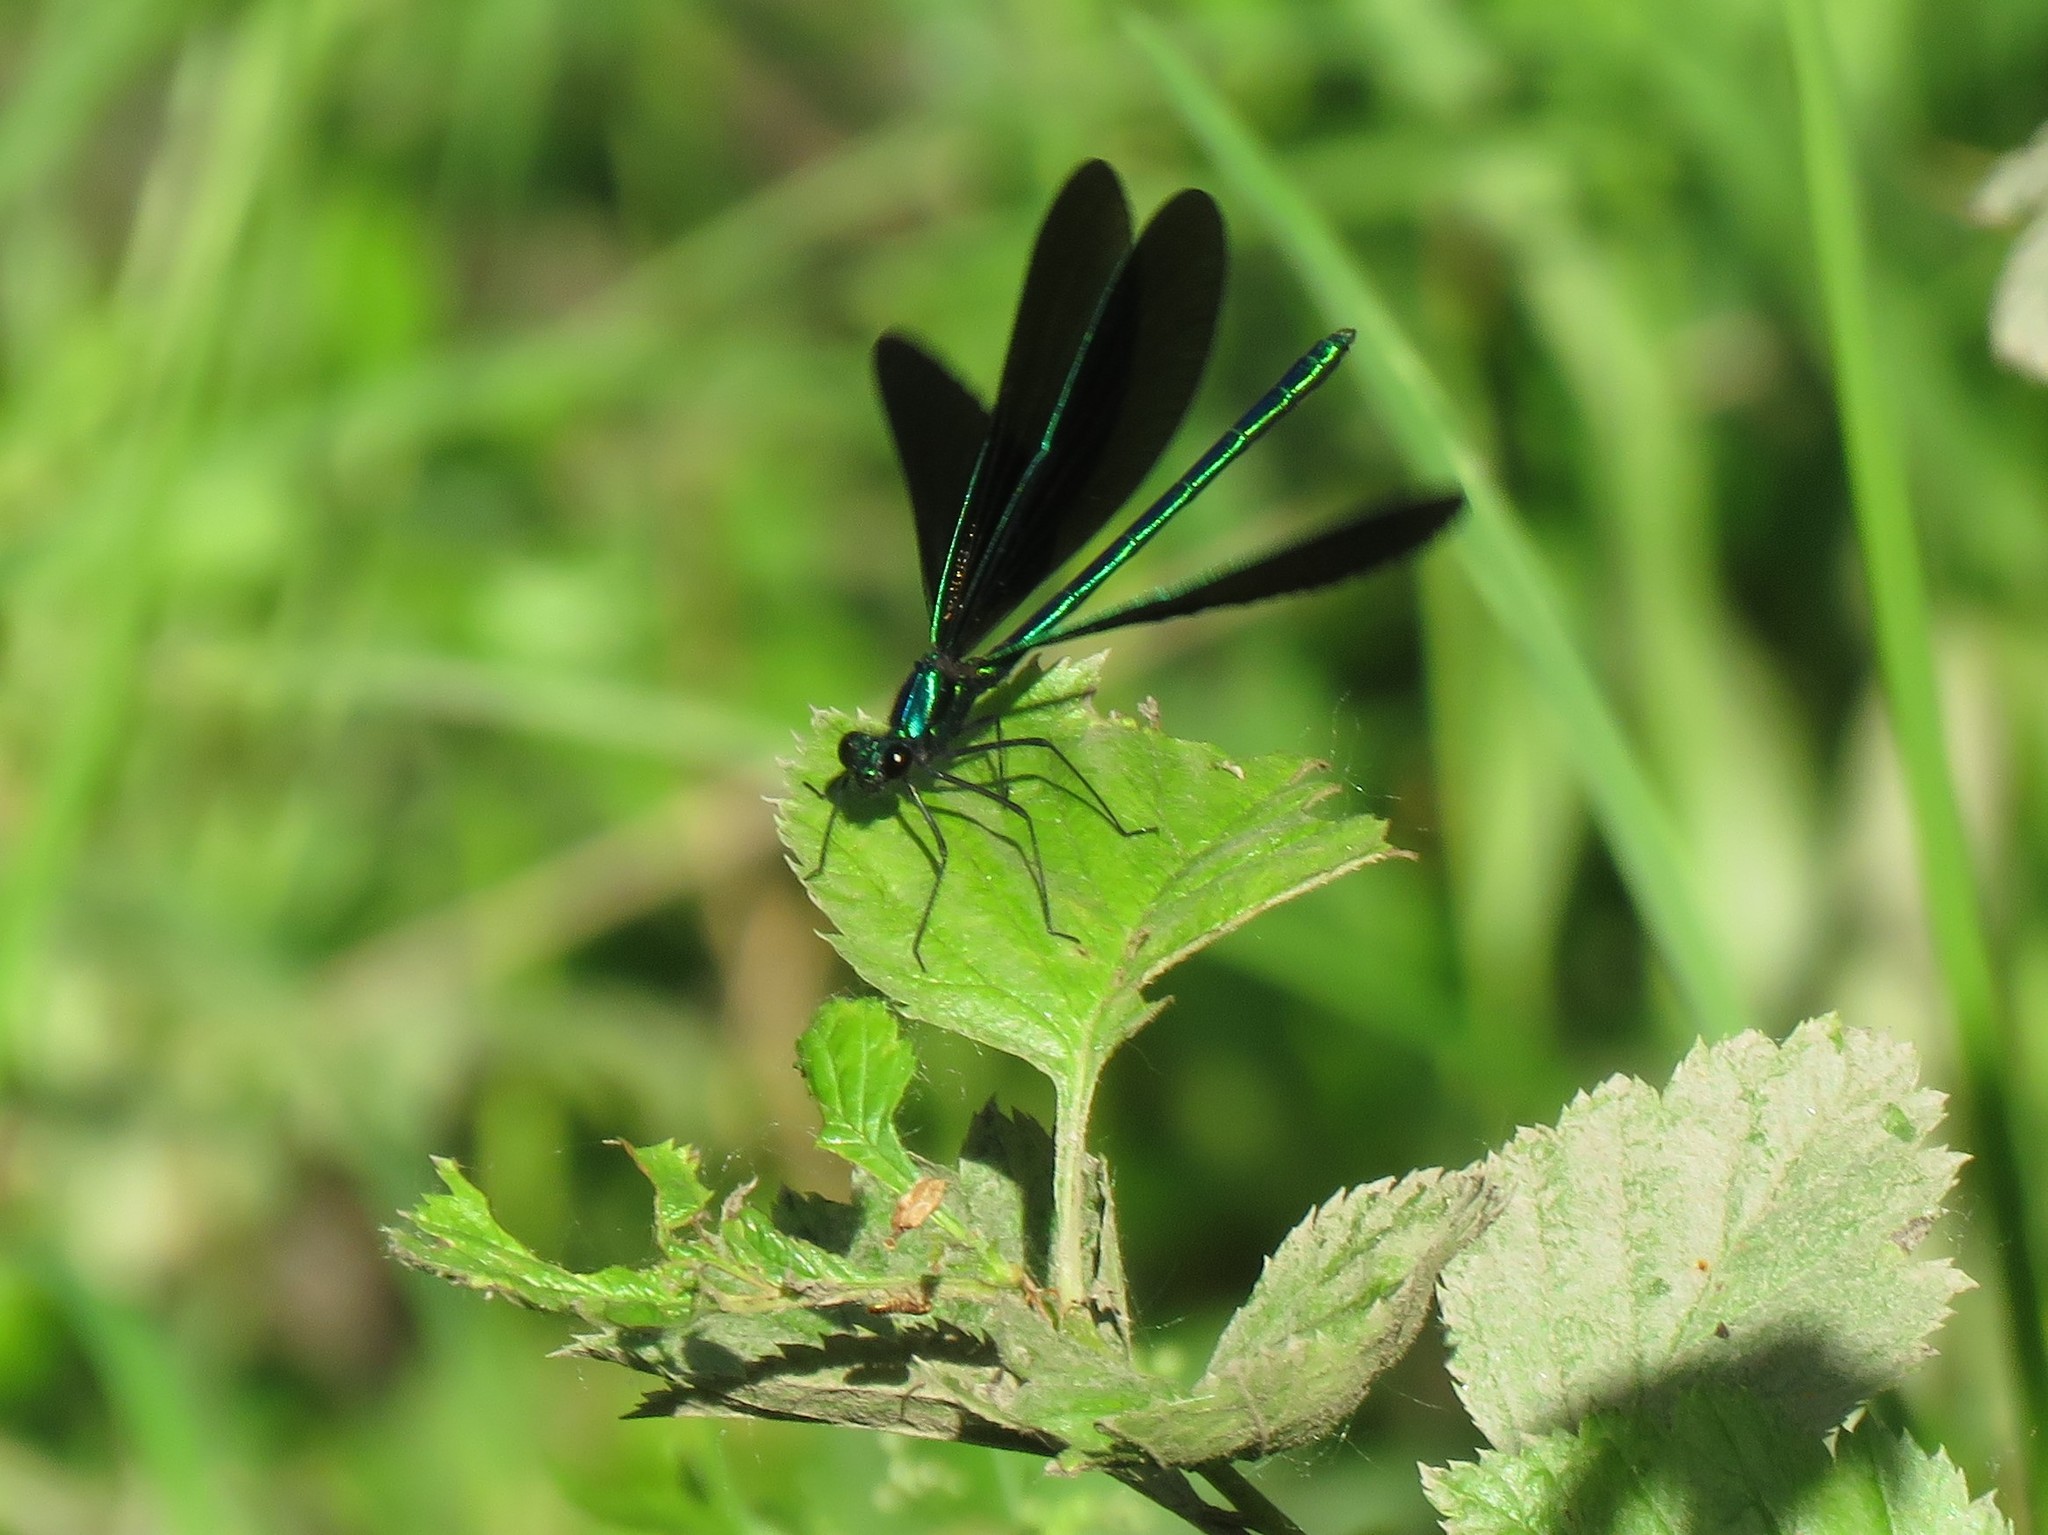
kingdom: Animalia
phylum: Arthropoda
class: Insecta
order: Odonata
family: Calopterygidae
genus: Calopteryx
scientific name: Calopteryx maculata
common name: Ebony jewelwing
